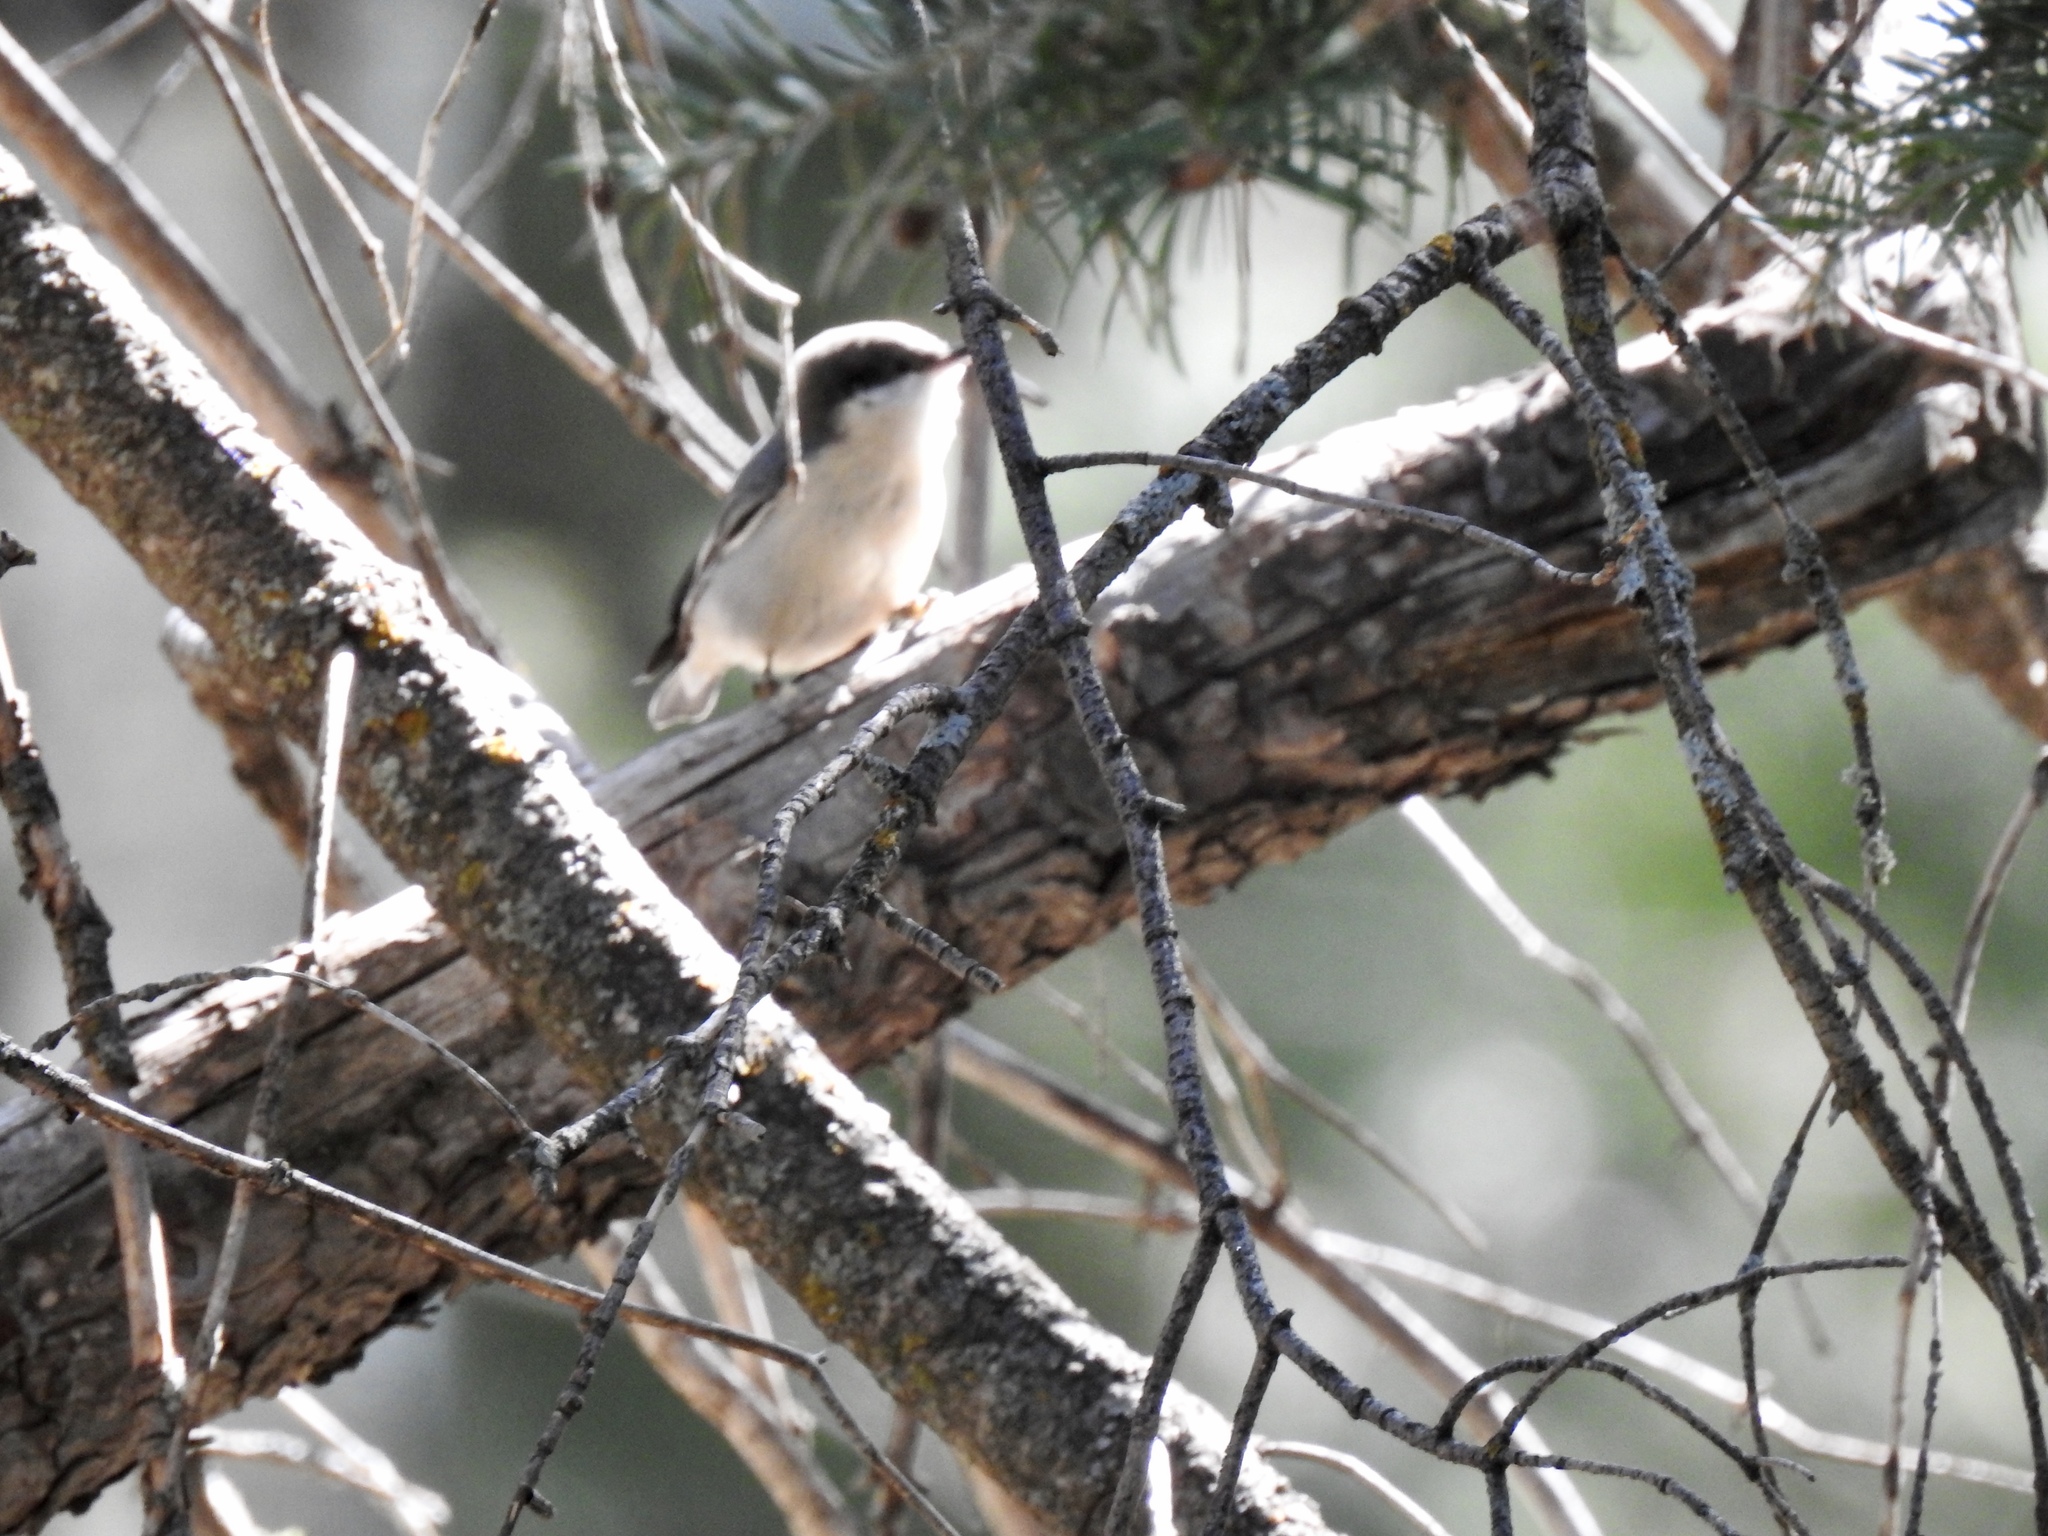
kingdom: Animalia
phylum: Chordata
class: Aves
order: Passeriformes
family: Sittidae
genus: Sitta
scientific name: Sitta pygmaea
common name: Pygmy nuthatch
